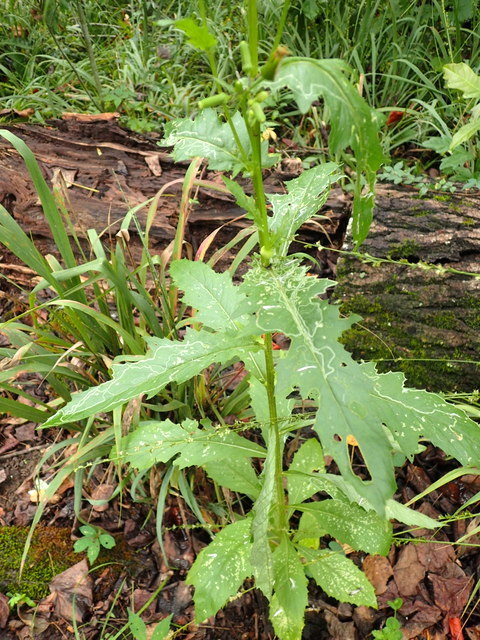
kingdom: Plantae
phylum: Tracheophyta
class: Magnoliopsida
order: Asterales
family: Asteraceae
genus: Erechtites
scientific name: Erechtites hieraciifolius
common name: American burnweed
